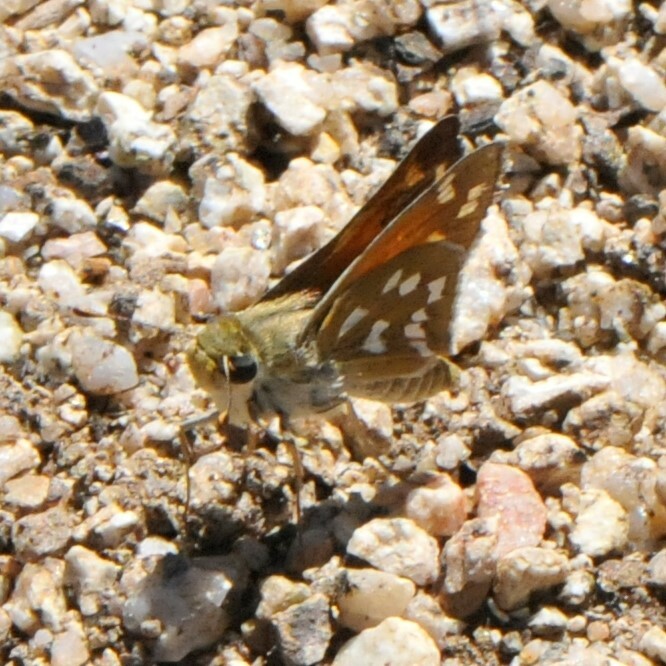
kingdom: Animalia
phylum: Arthropoda
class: Insecta
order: Lepidoptera
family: Hesperiidae
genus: Hesperia
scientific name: Hesperia viridis
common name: Green skipper
